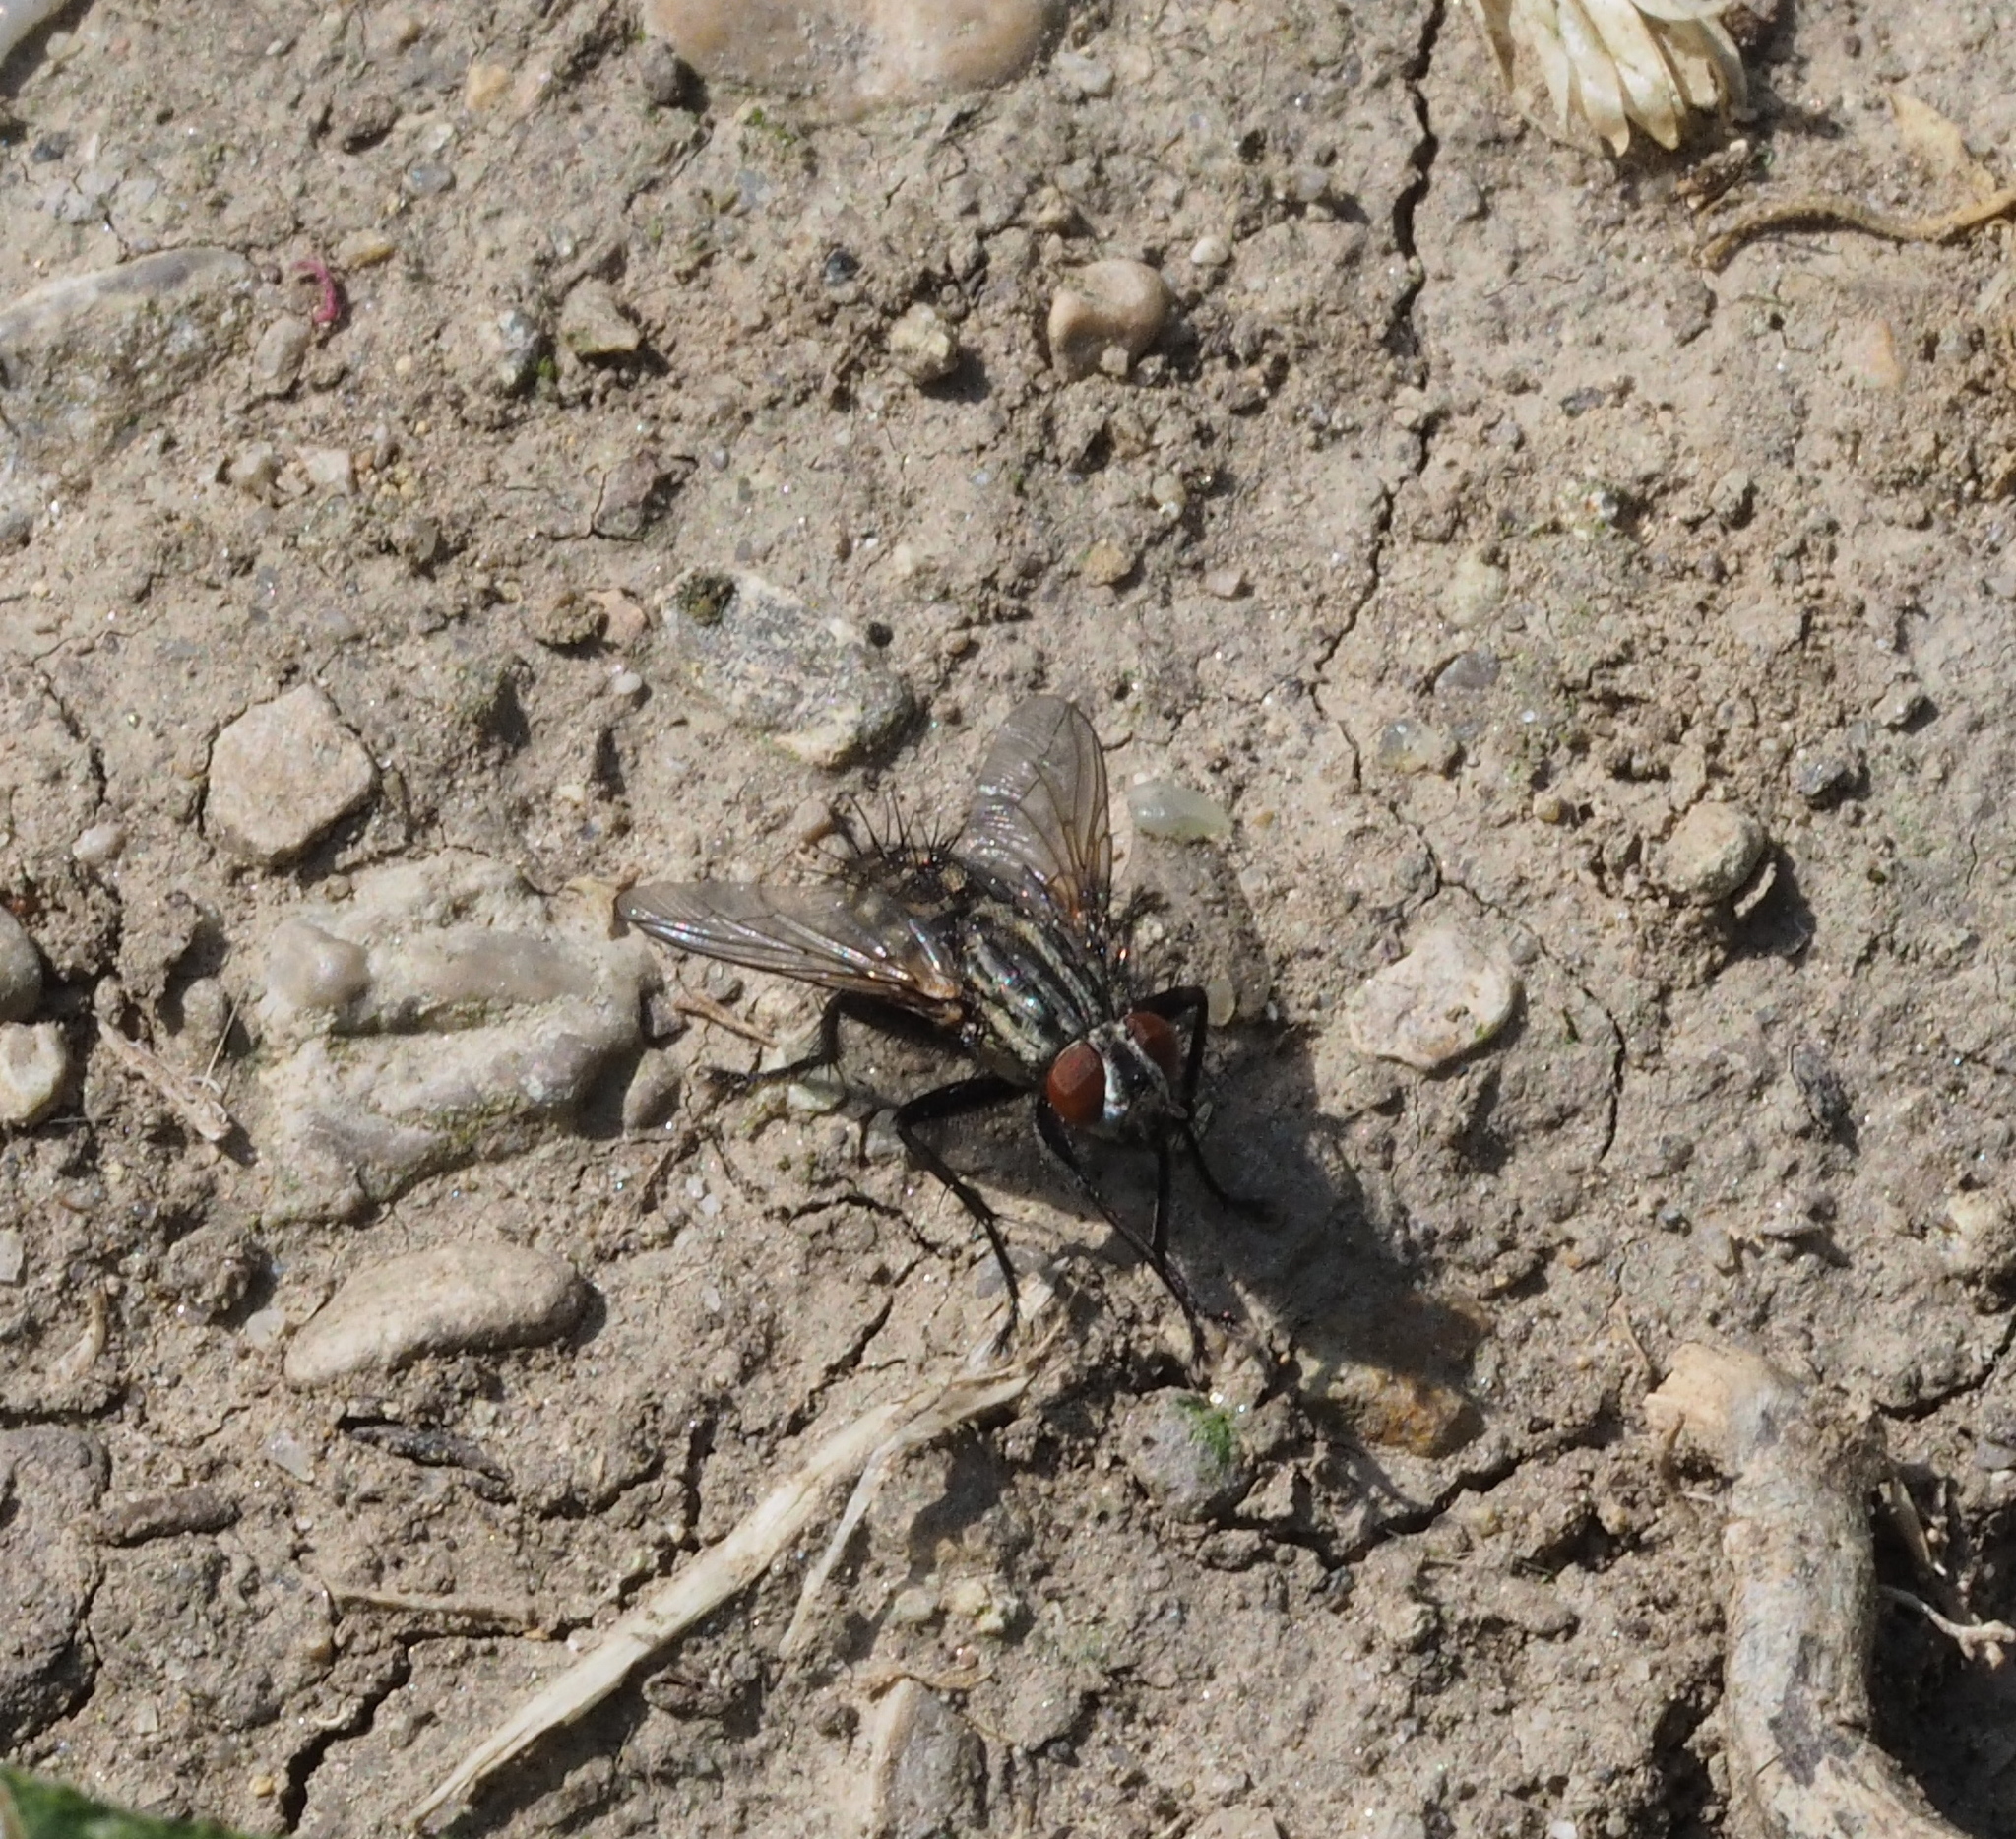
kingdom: Animalia
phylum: Arthropoda
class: Insecta
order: Diptera
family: Sarcophagidae
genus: Sarcophaga
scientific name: Sarcophaga filia
